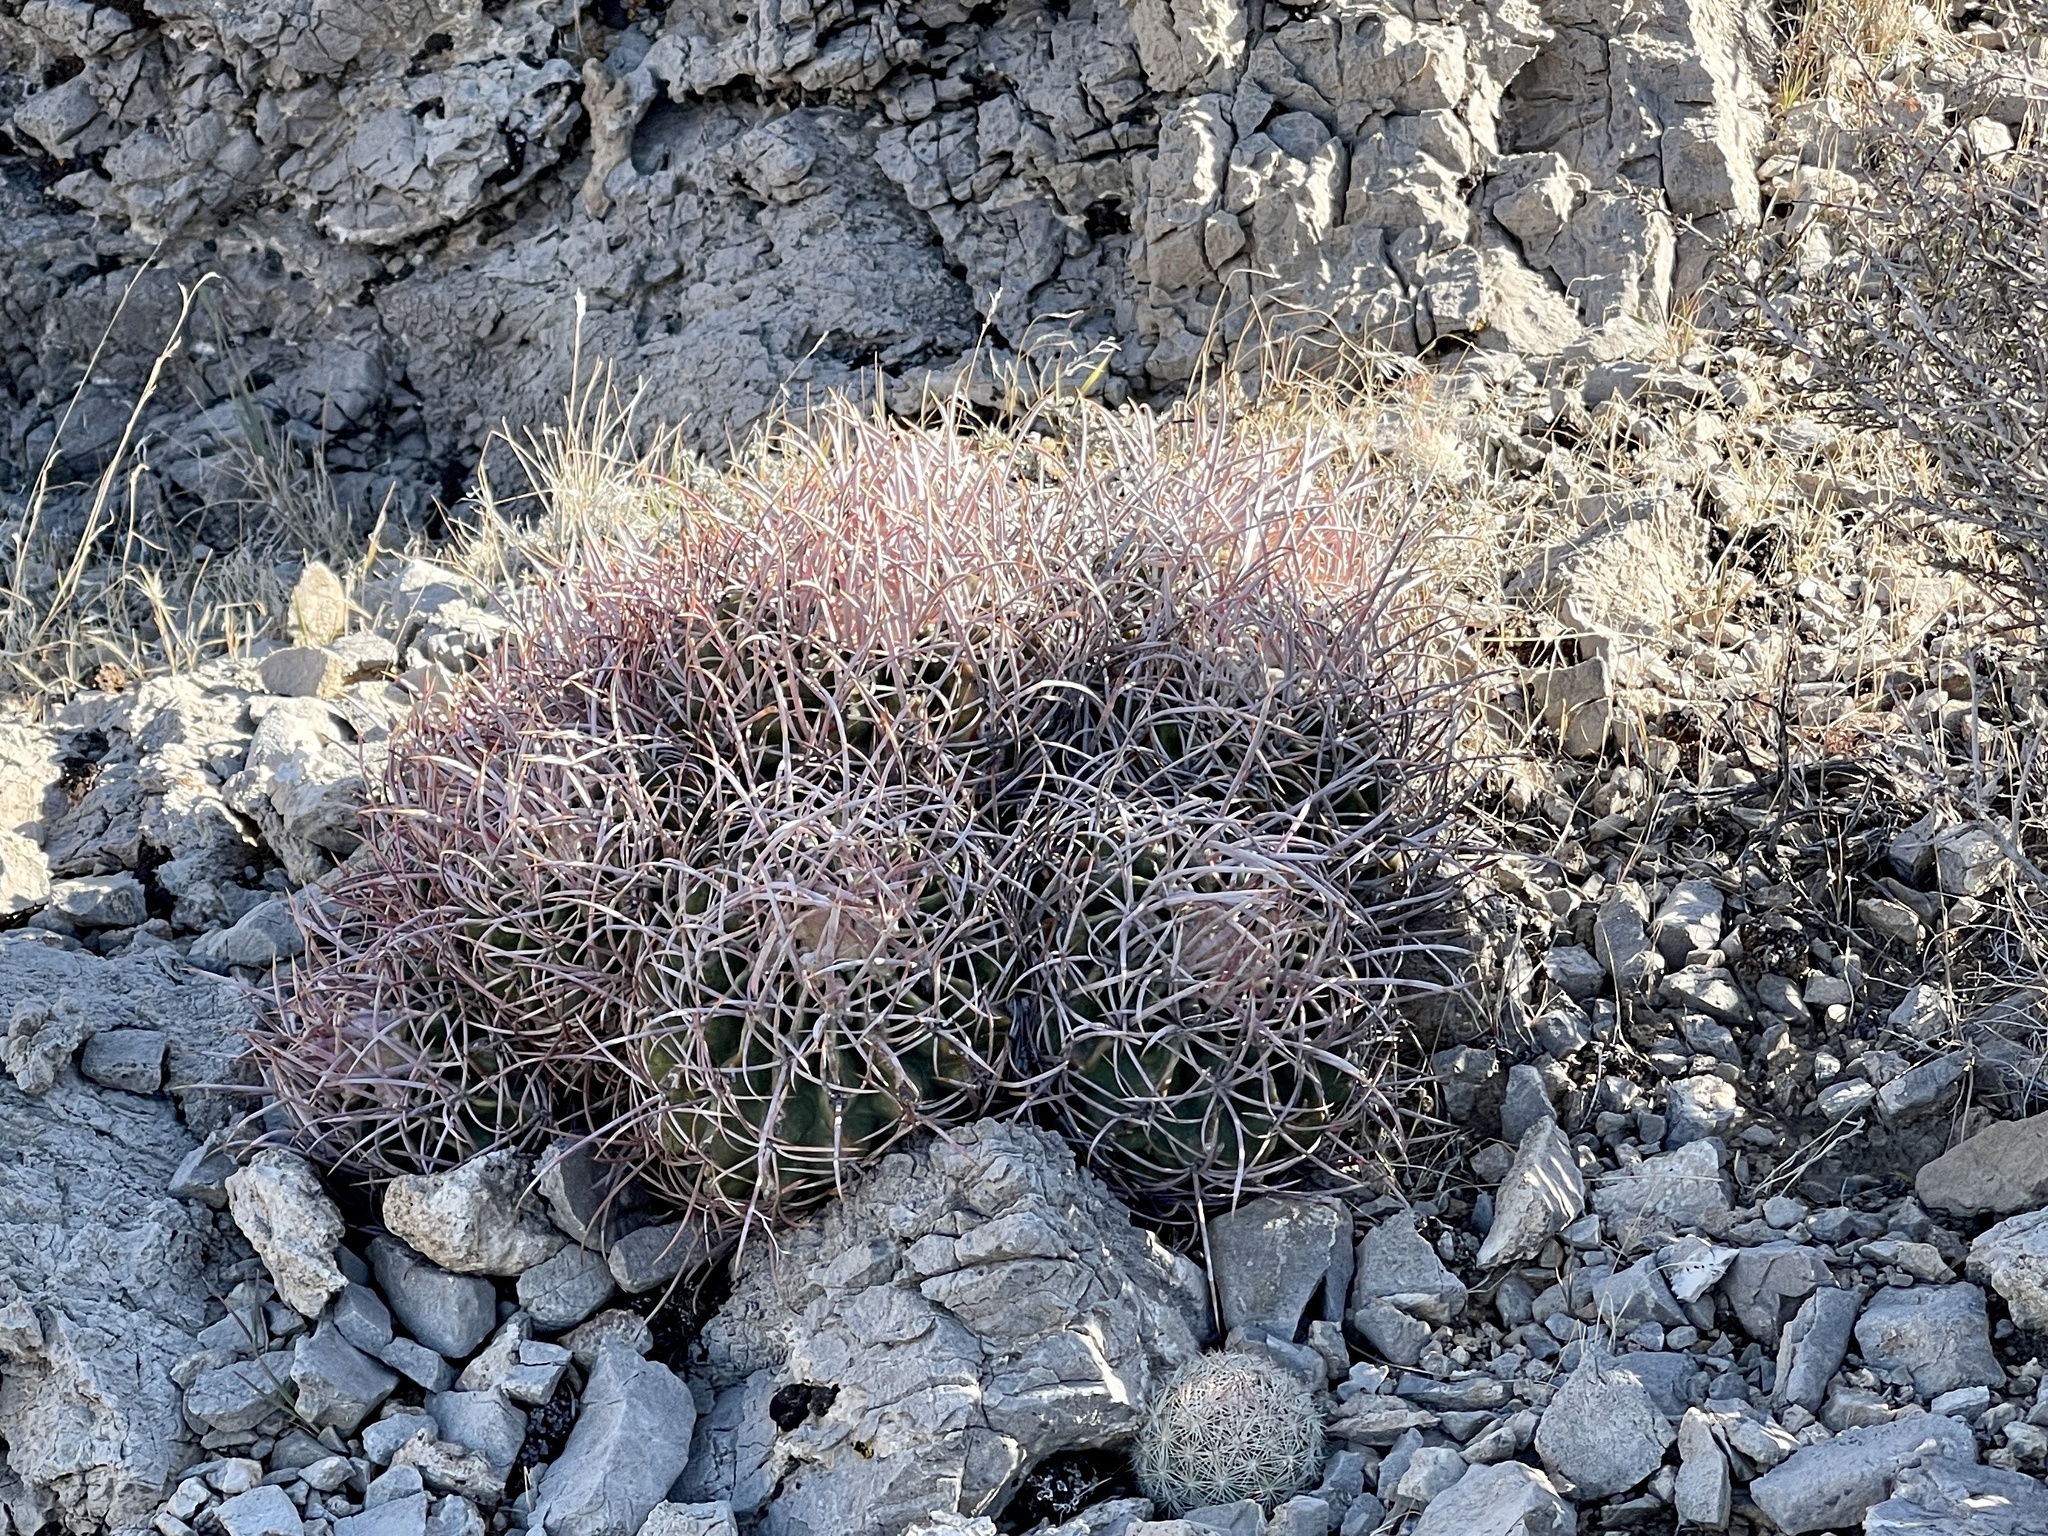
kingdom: Plantae
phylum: Tracheophyta
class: Magnoliopsida
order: Caryophyllales
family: Cactaceae
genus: Echinocactus
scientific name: Echinocactus polycephalus
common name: Cottontop cactus
